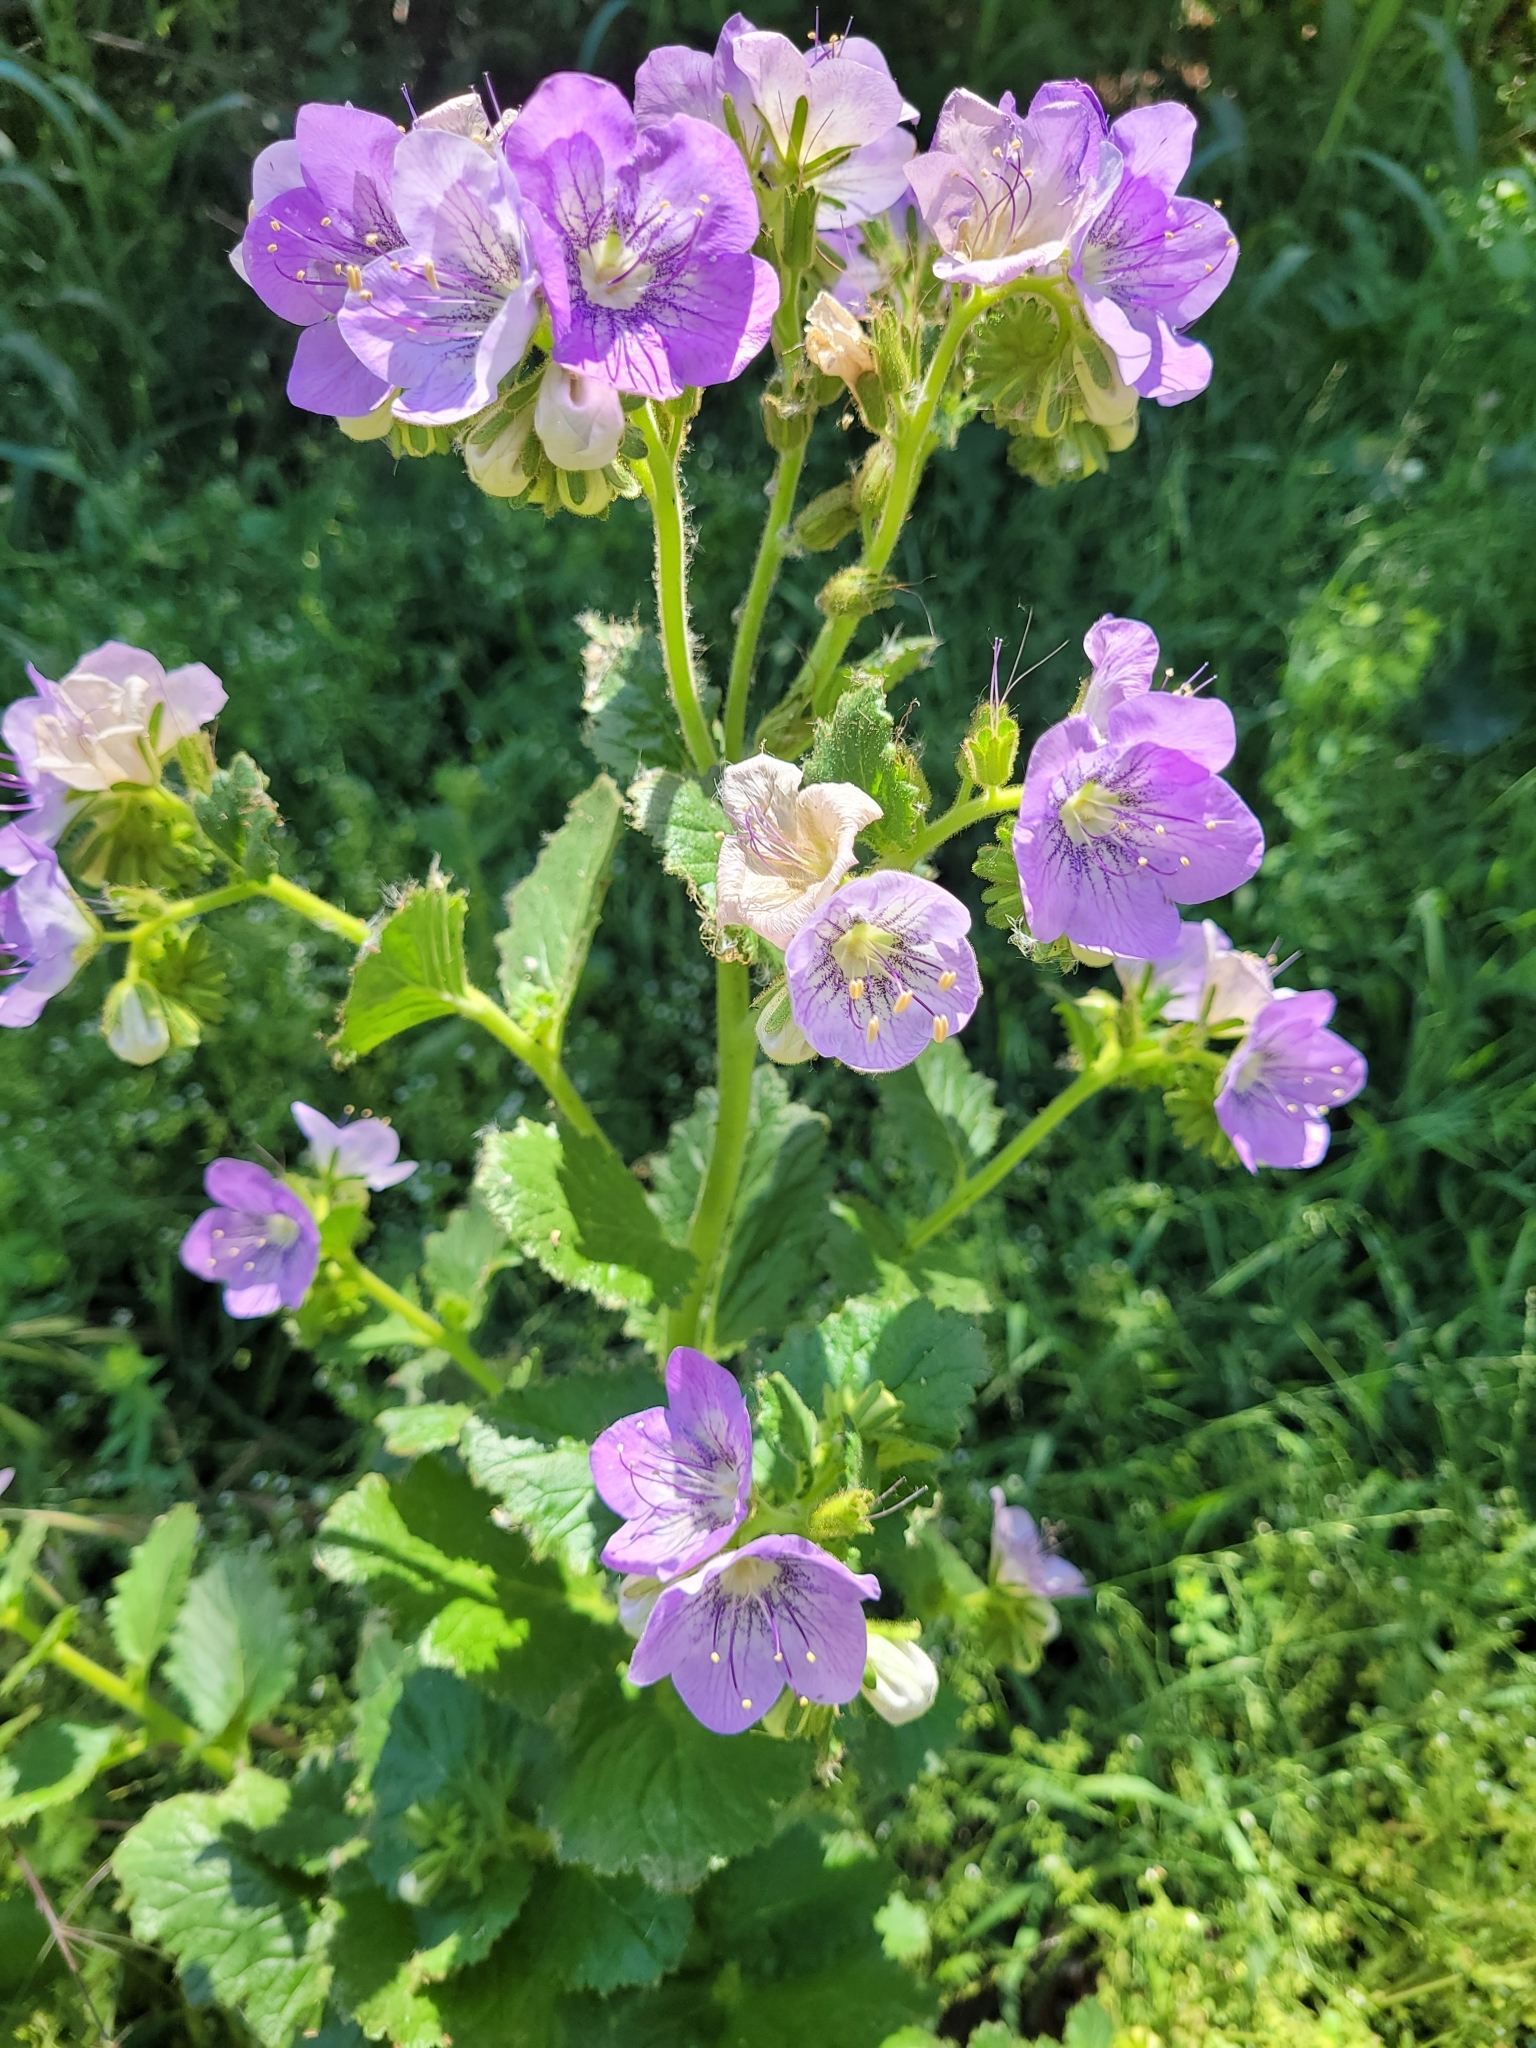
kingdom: Plantae
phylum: Tracheophyta
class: Magnoliopsida
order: Boraginales
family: Hydrophyllaceae
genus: Phacelia
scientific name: Phacelia grandiflora
